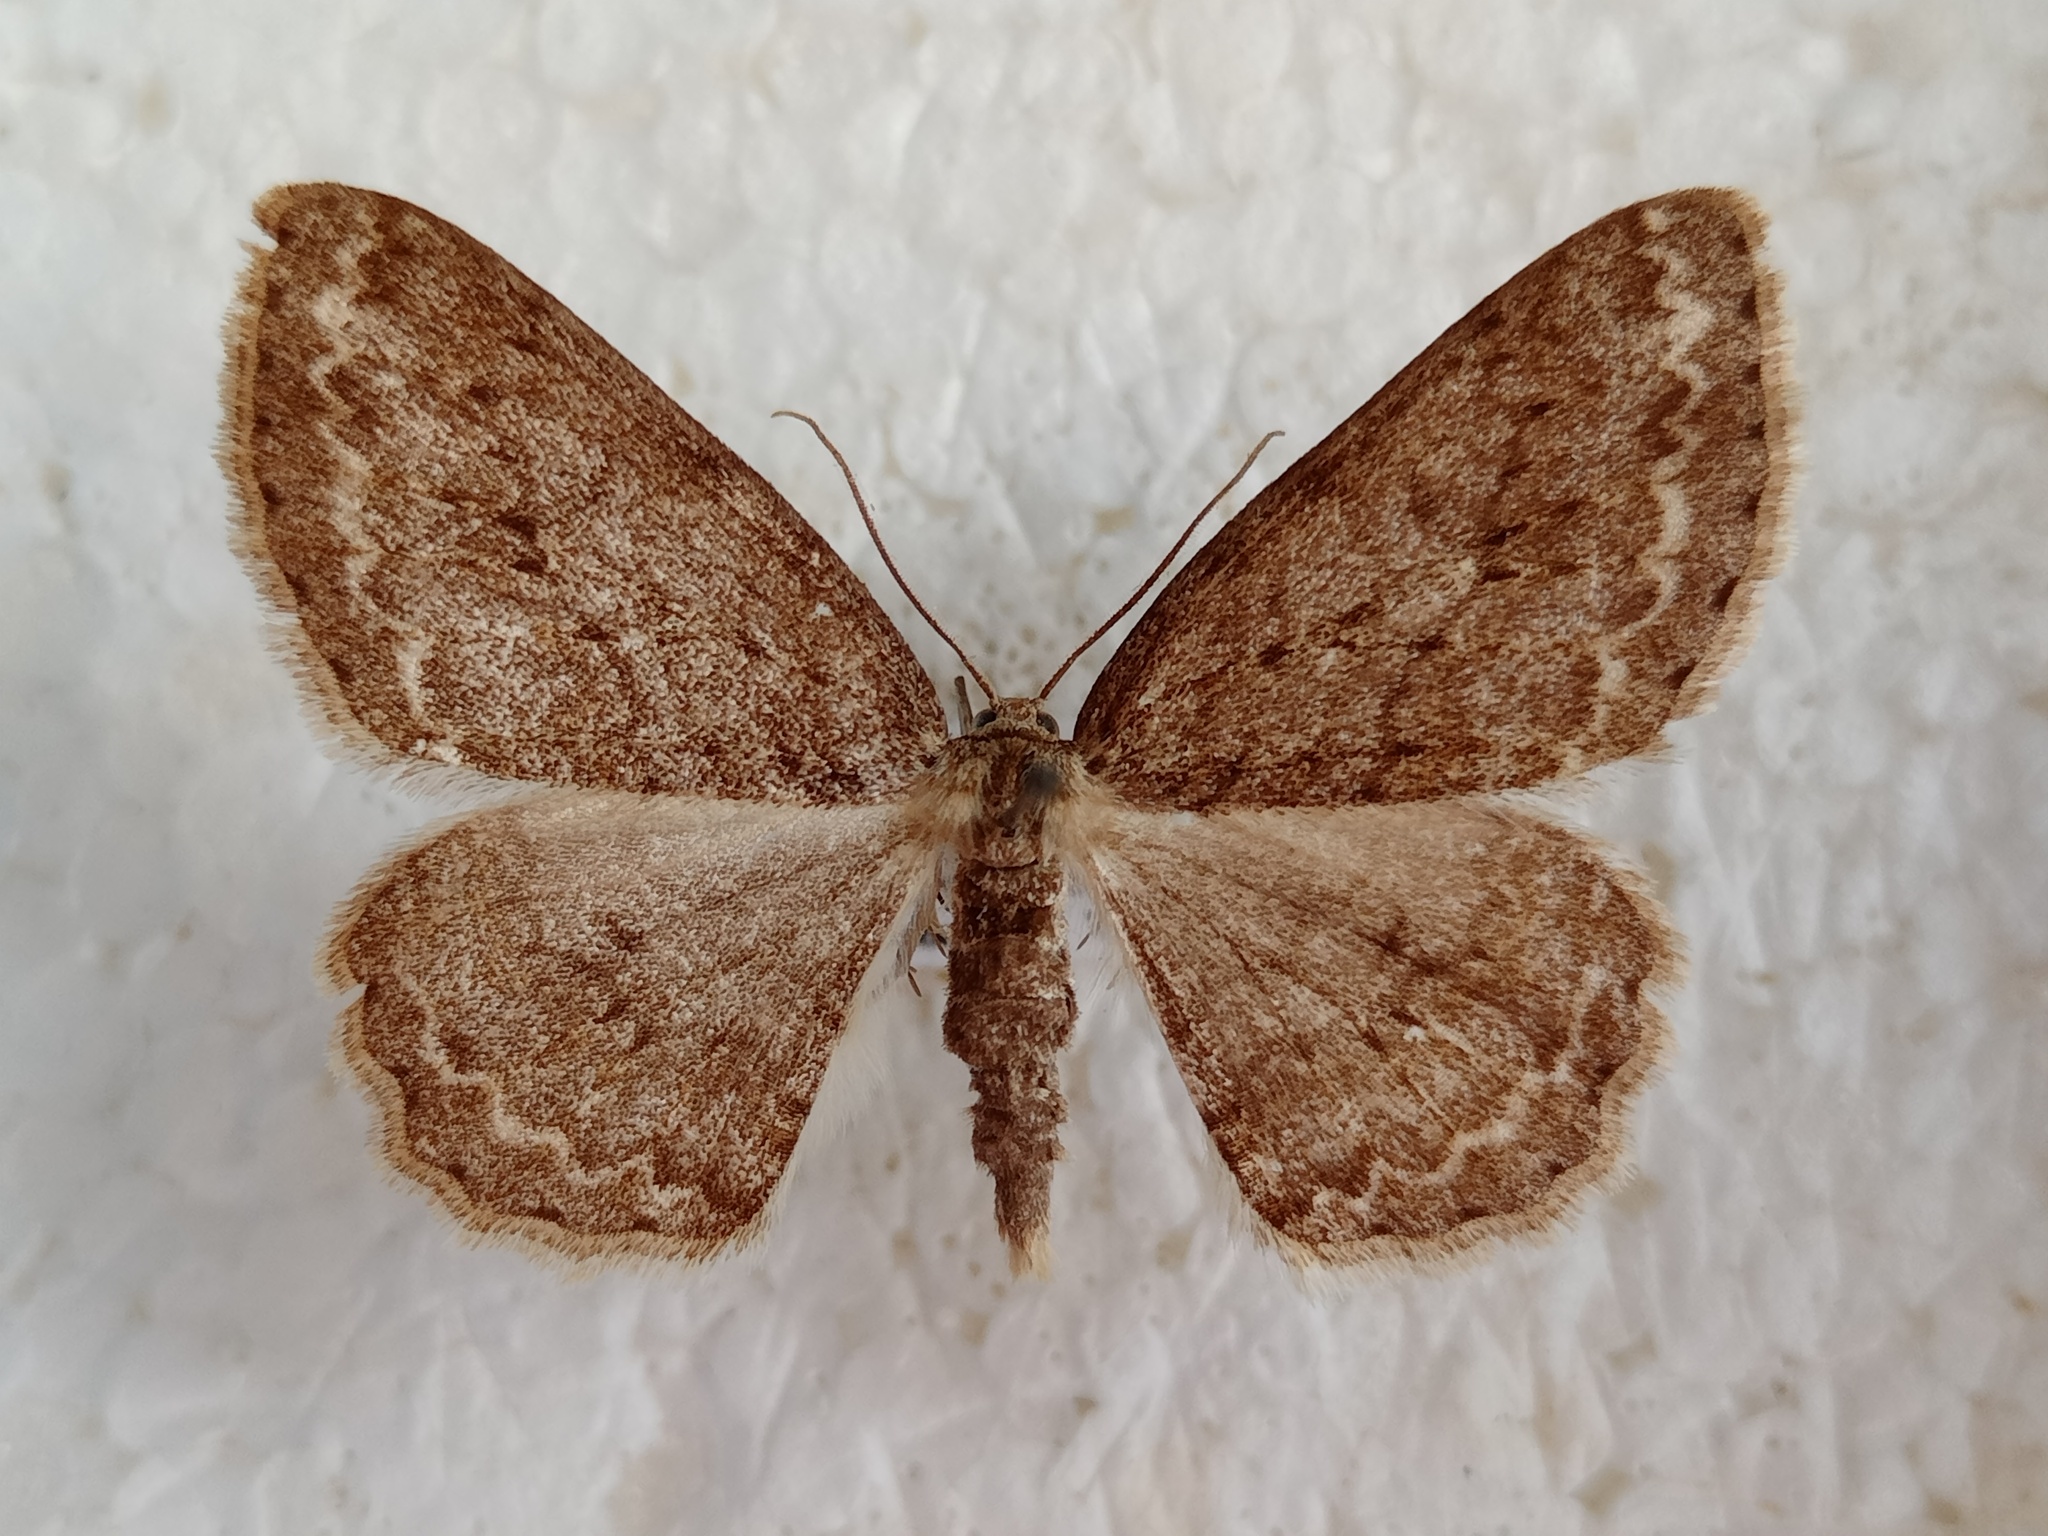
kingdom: Animalia
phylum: Arthropoda
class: Insecta
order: Lepidoptera
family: Geometridae
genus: Ectropis
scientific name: Ectropis crepuscularia
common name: Engrailed
